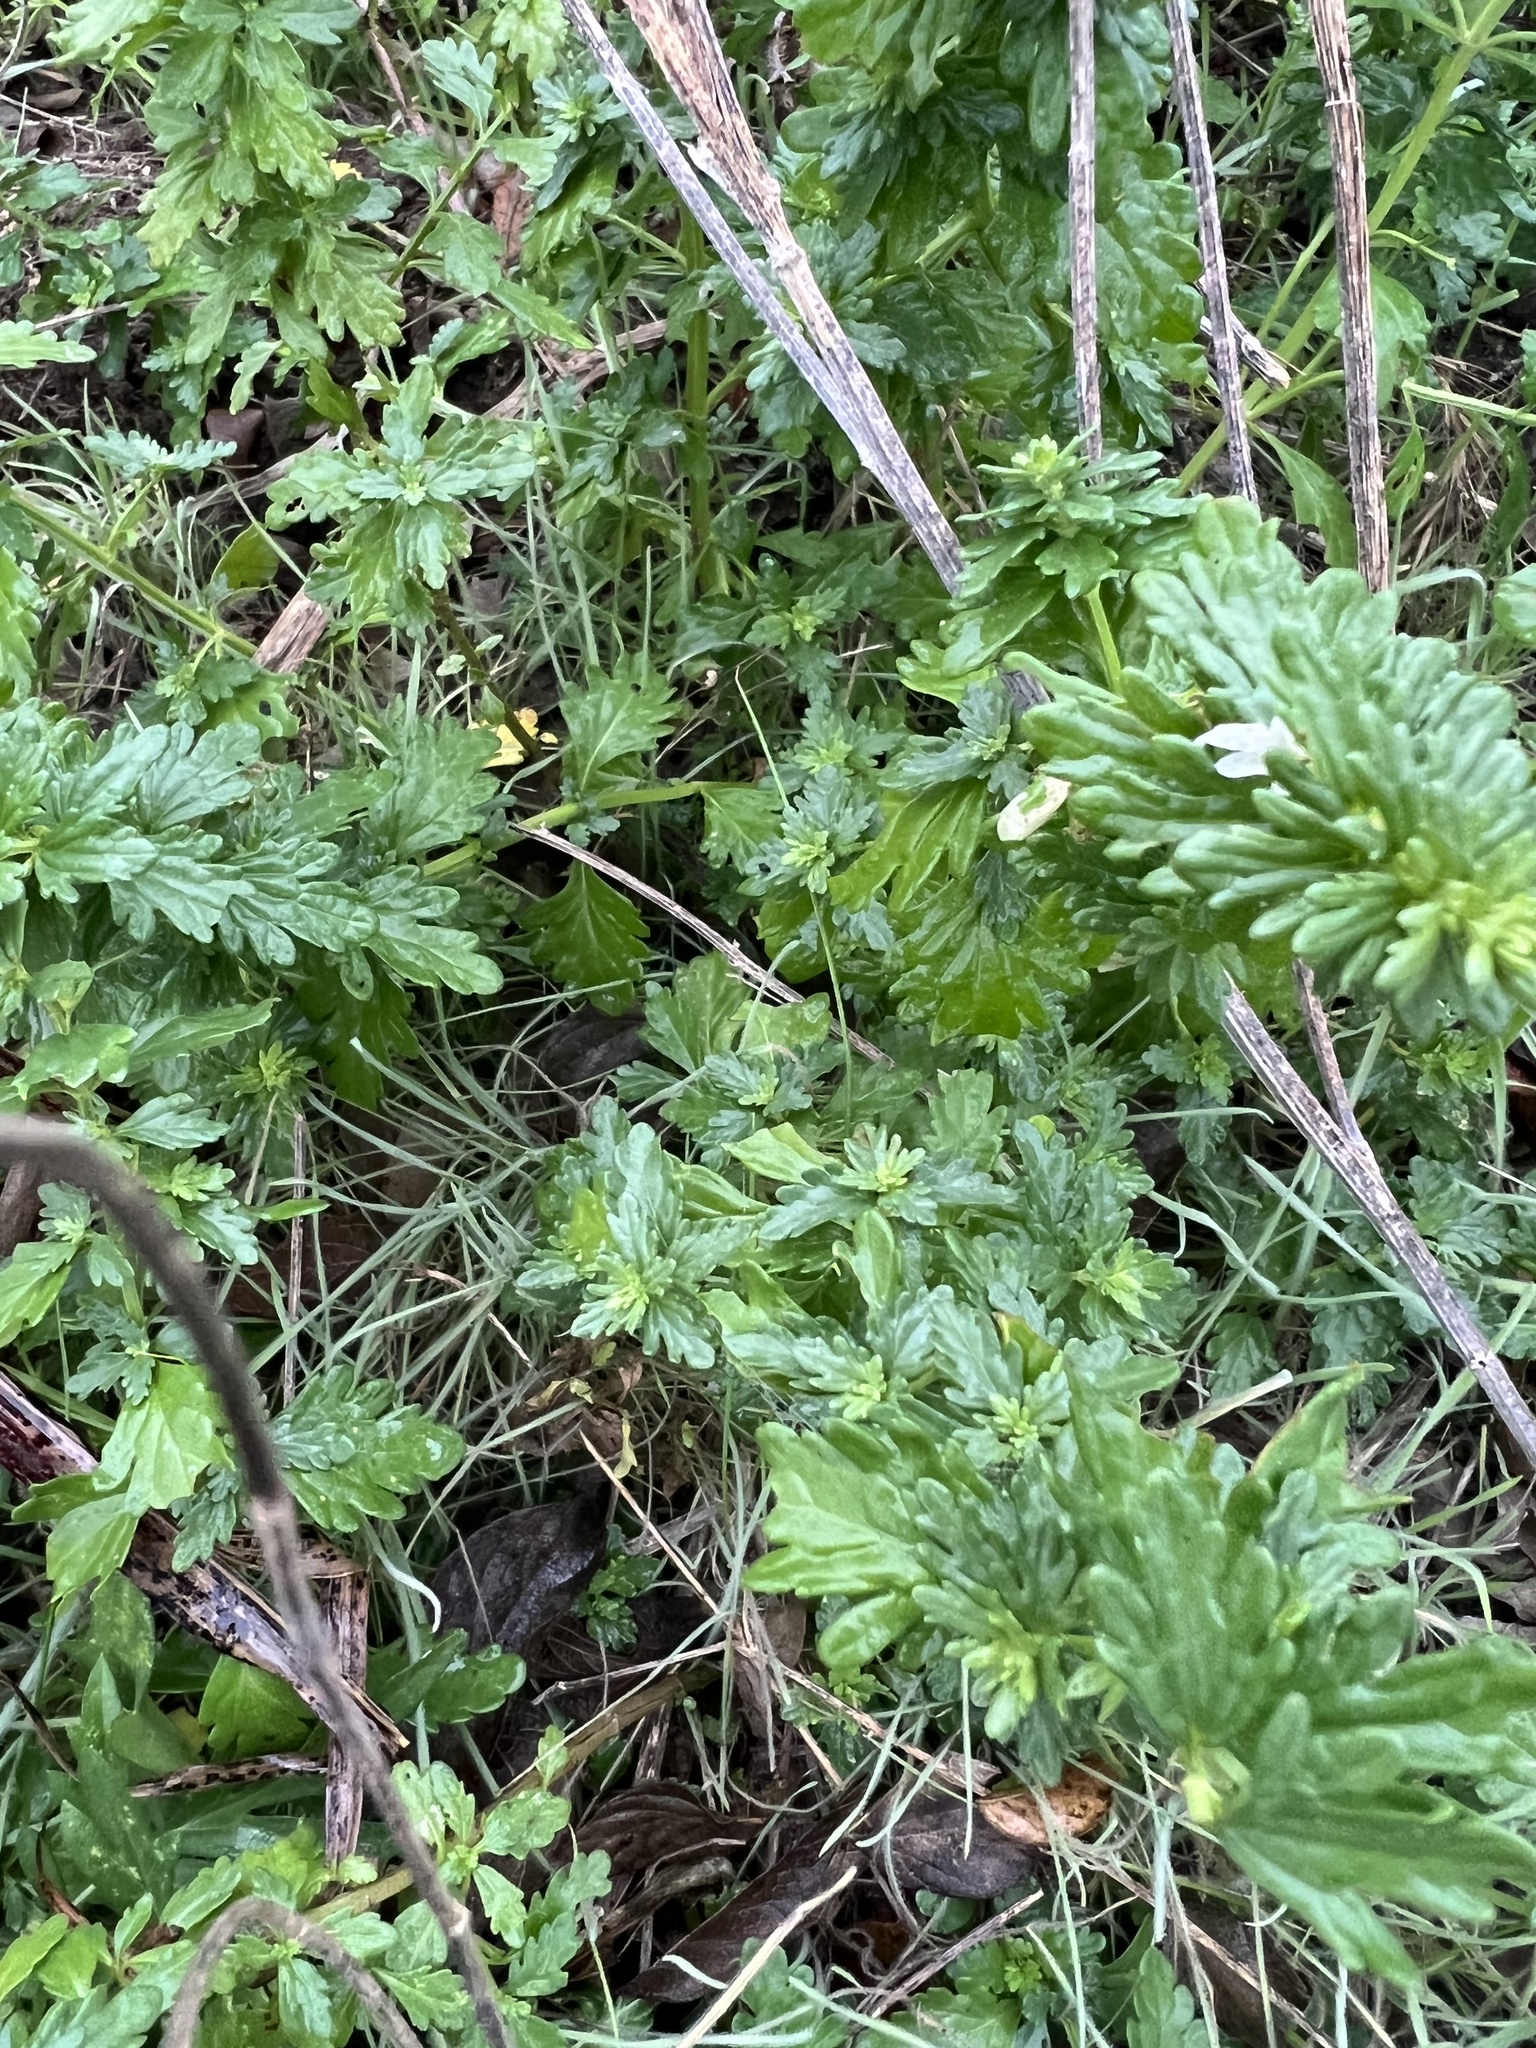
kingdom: Plantae
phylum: Tracheophyta
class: Magnoliopsida
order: Lamiales
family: Lamiaceae
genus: Teucrium
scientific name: Teucrium cubense
